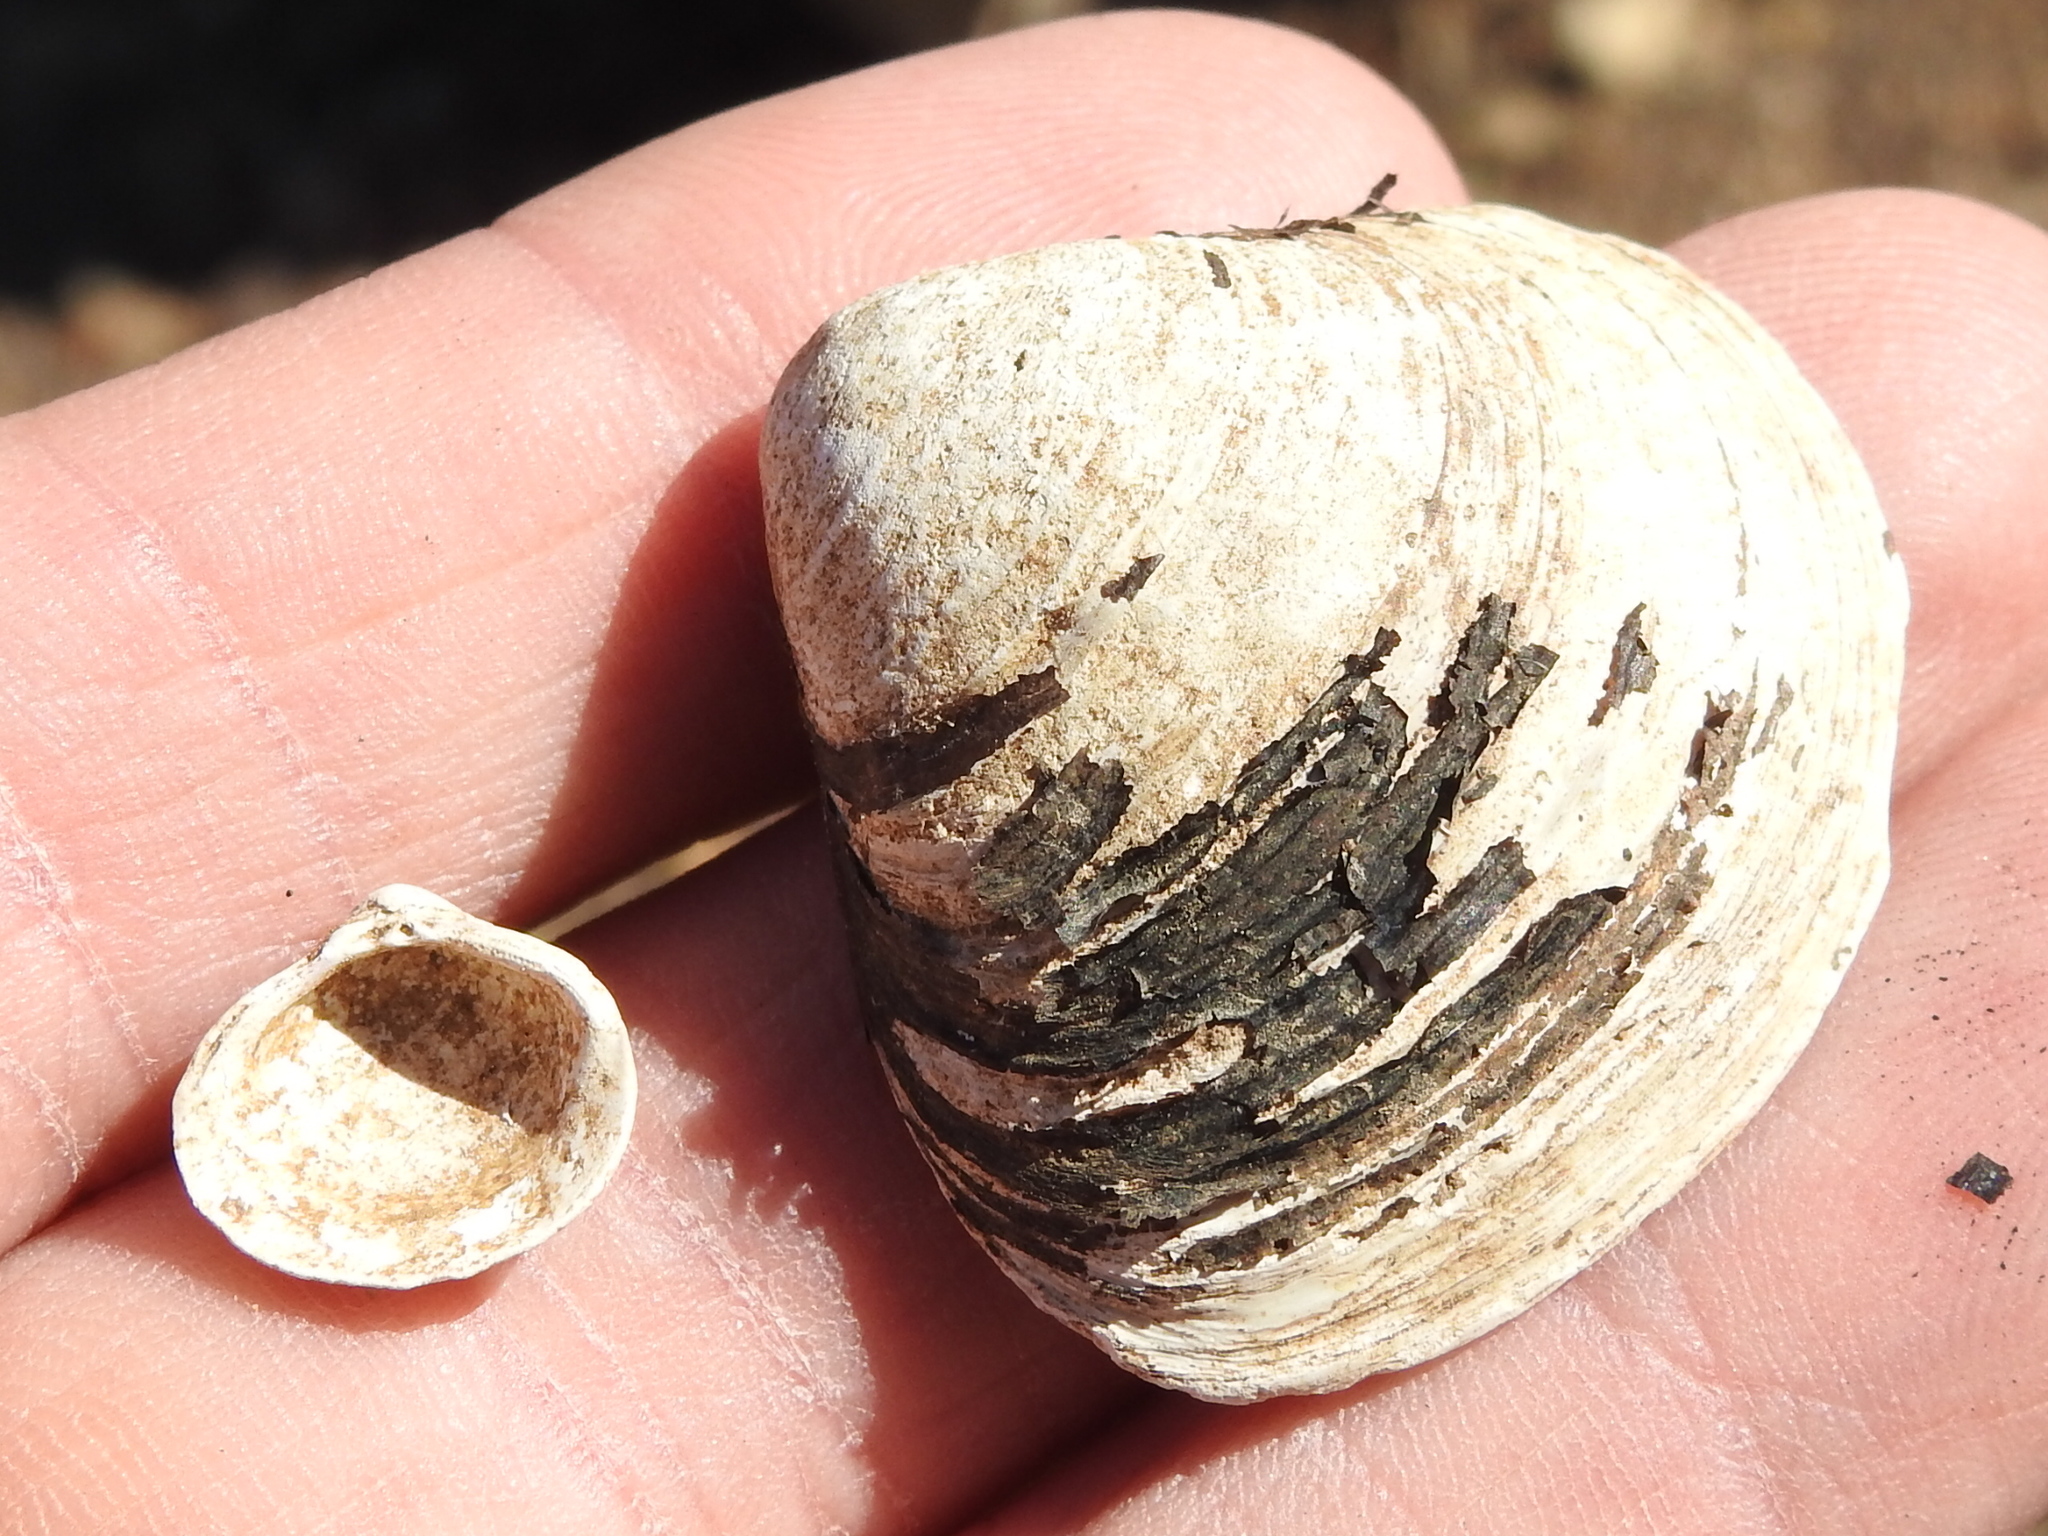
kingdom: Animalia
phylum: Mollusca
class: Bivalvia
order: Venerida
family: Cyrenidae
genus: Corbicula
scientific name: Corbicula fluminea
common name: Asian clam
